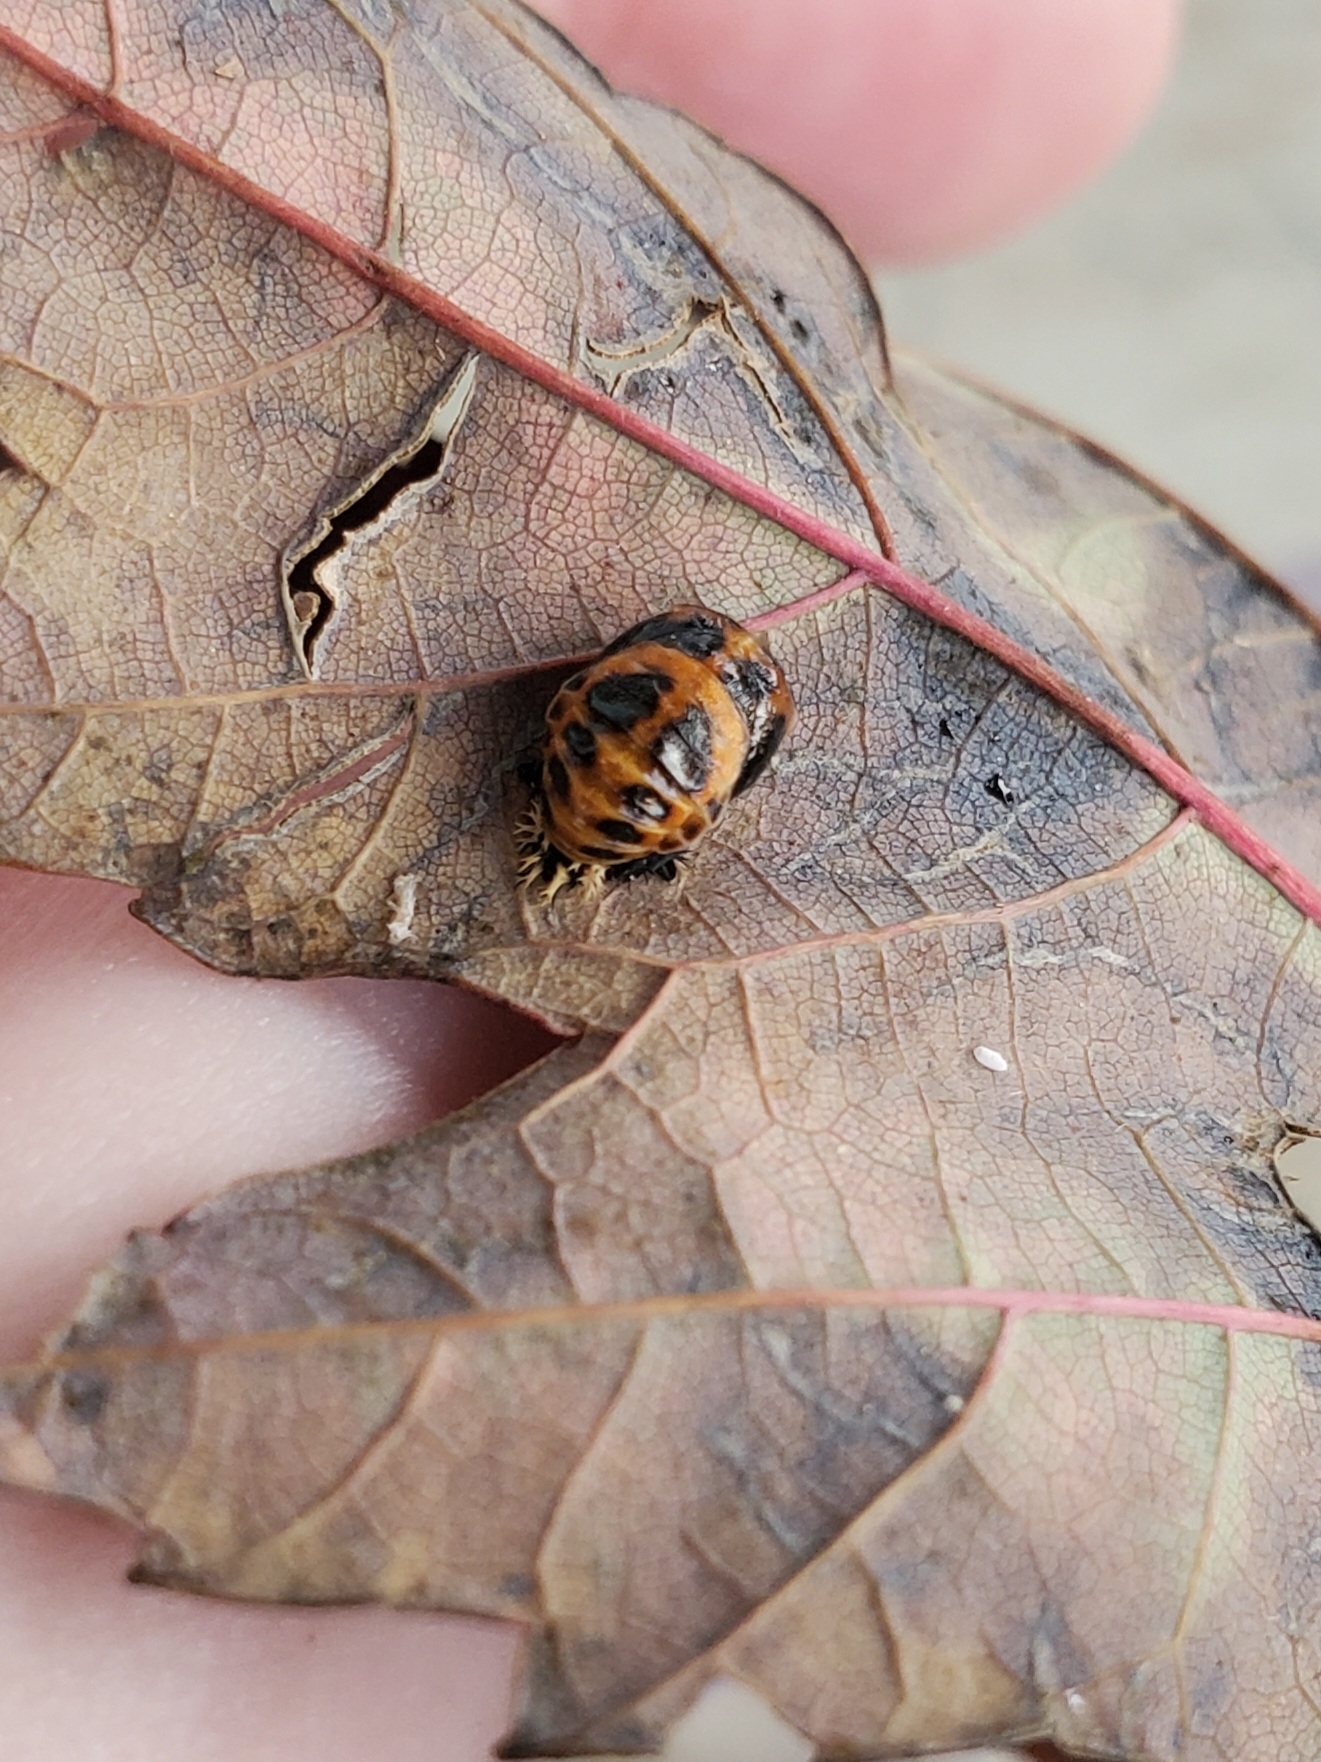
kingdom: Animalia
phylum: Arthropoda
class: Insecta
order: Coleoptera
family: Coccinellidae
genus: Harmonia
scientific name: Harmonia axyridis
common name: Harlequin ladybird
